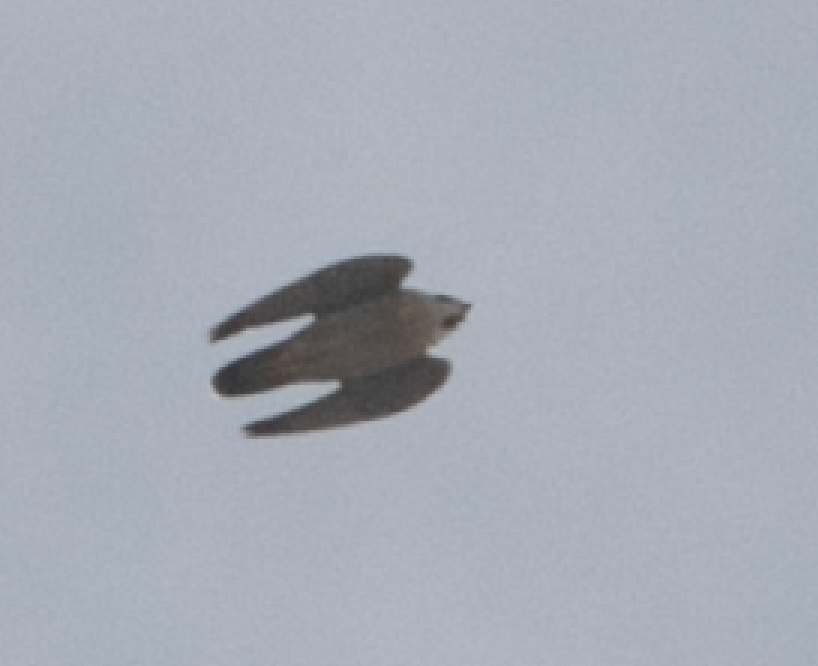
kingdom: Animalia
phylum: Chordata
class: Aves
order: Falconiformes
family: Falconidae
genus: Falco
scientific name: Falco peregrinus
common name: Peregrine falcon
